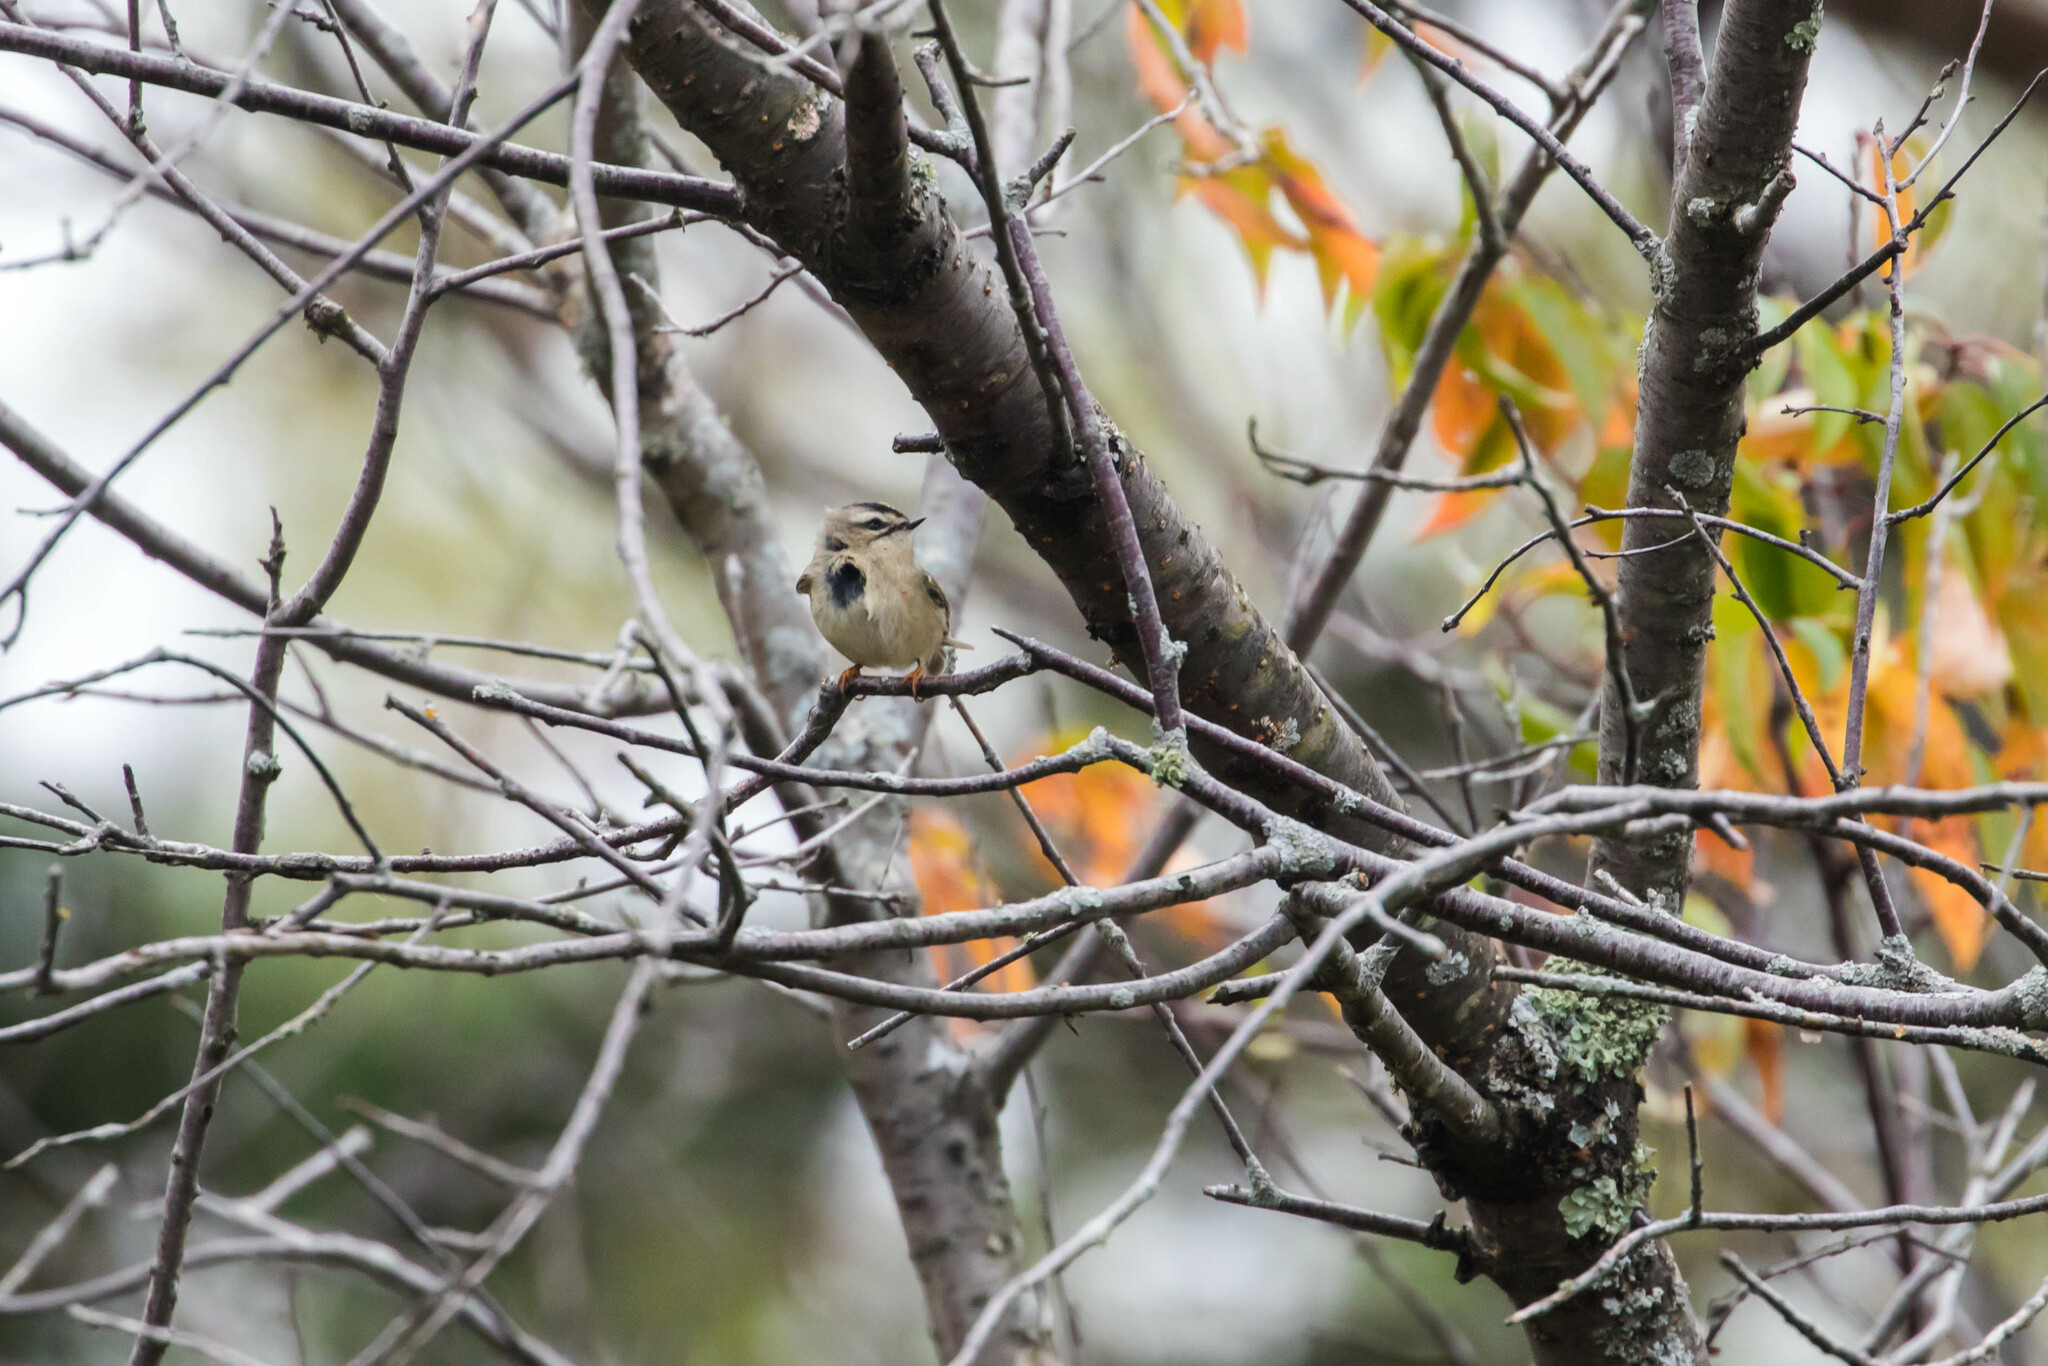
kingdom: Animalia
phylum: Chordata
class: Aves
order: Passeriformes
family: Regulidae
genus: Regulus
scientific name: Regulus satrapa
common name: Golden-crowned kinglet
